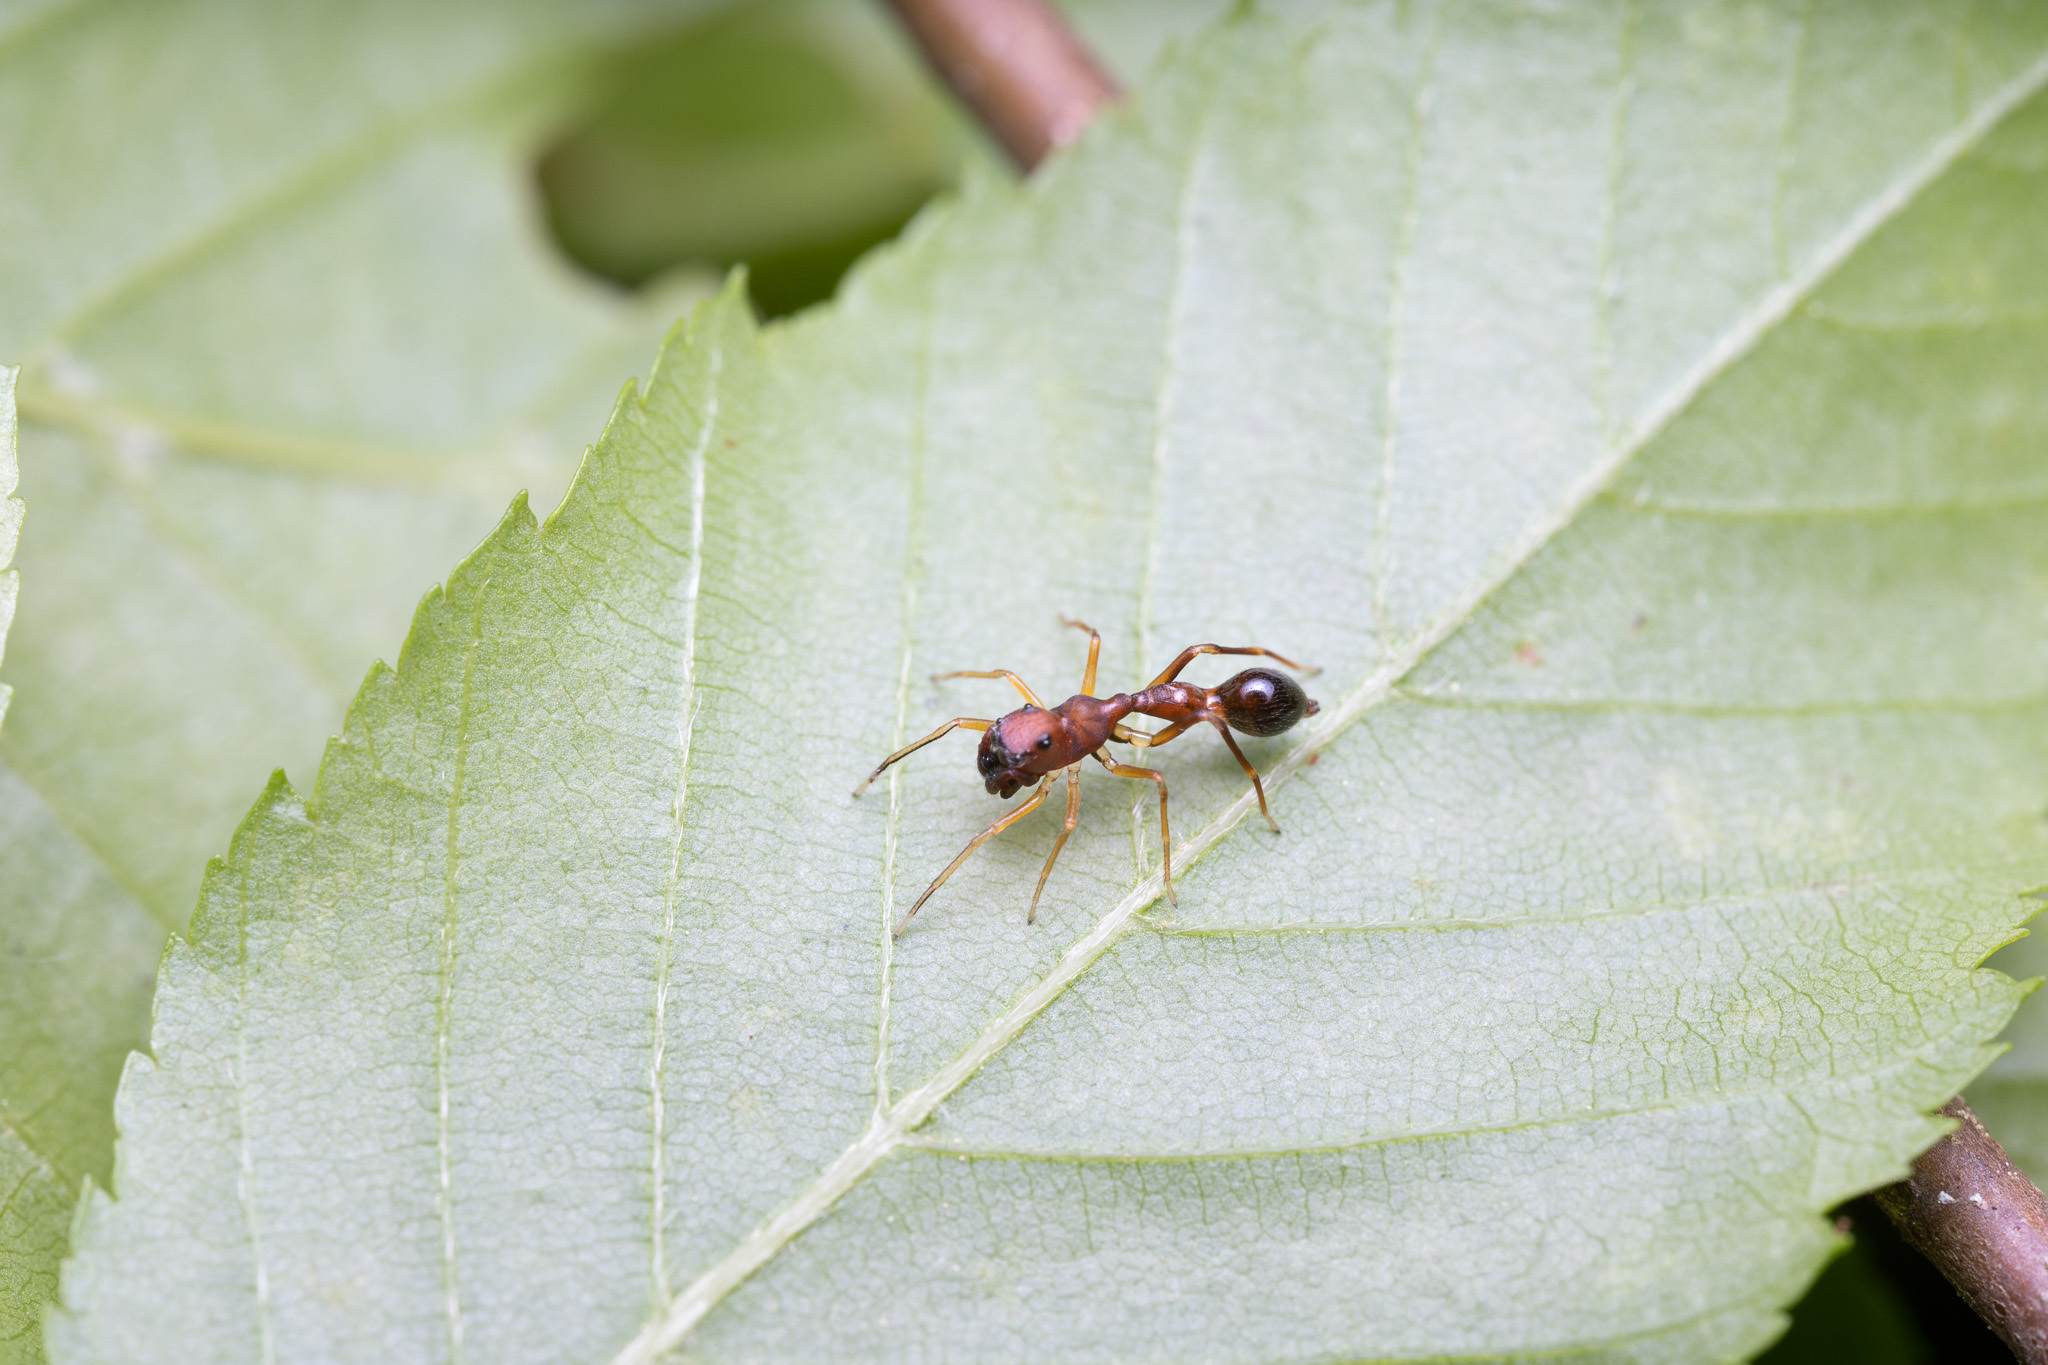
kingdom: Animalia
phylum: Arthropoda
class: Arachnida
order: Araneae
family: Salticidae
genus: Synemosyna
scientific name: Synemosyna formica
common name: Slender ant-mimic jumping spider
